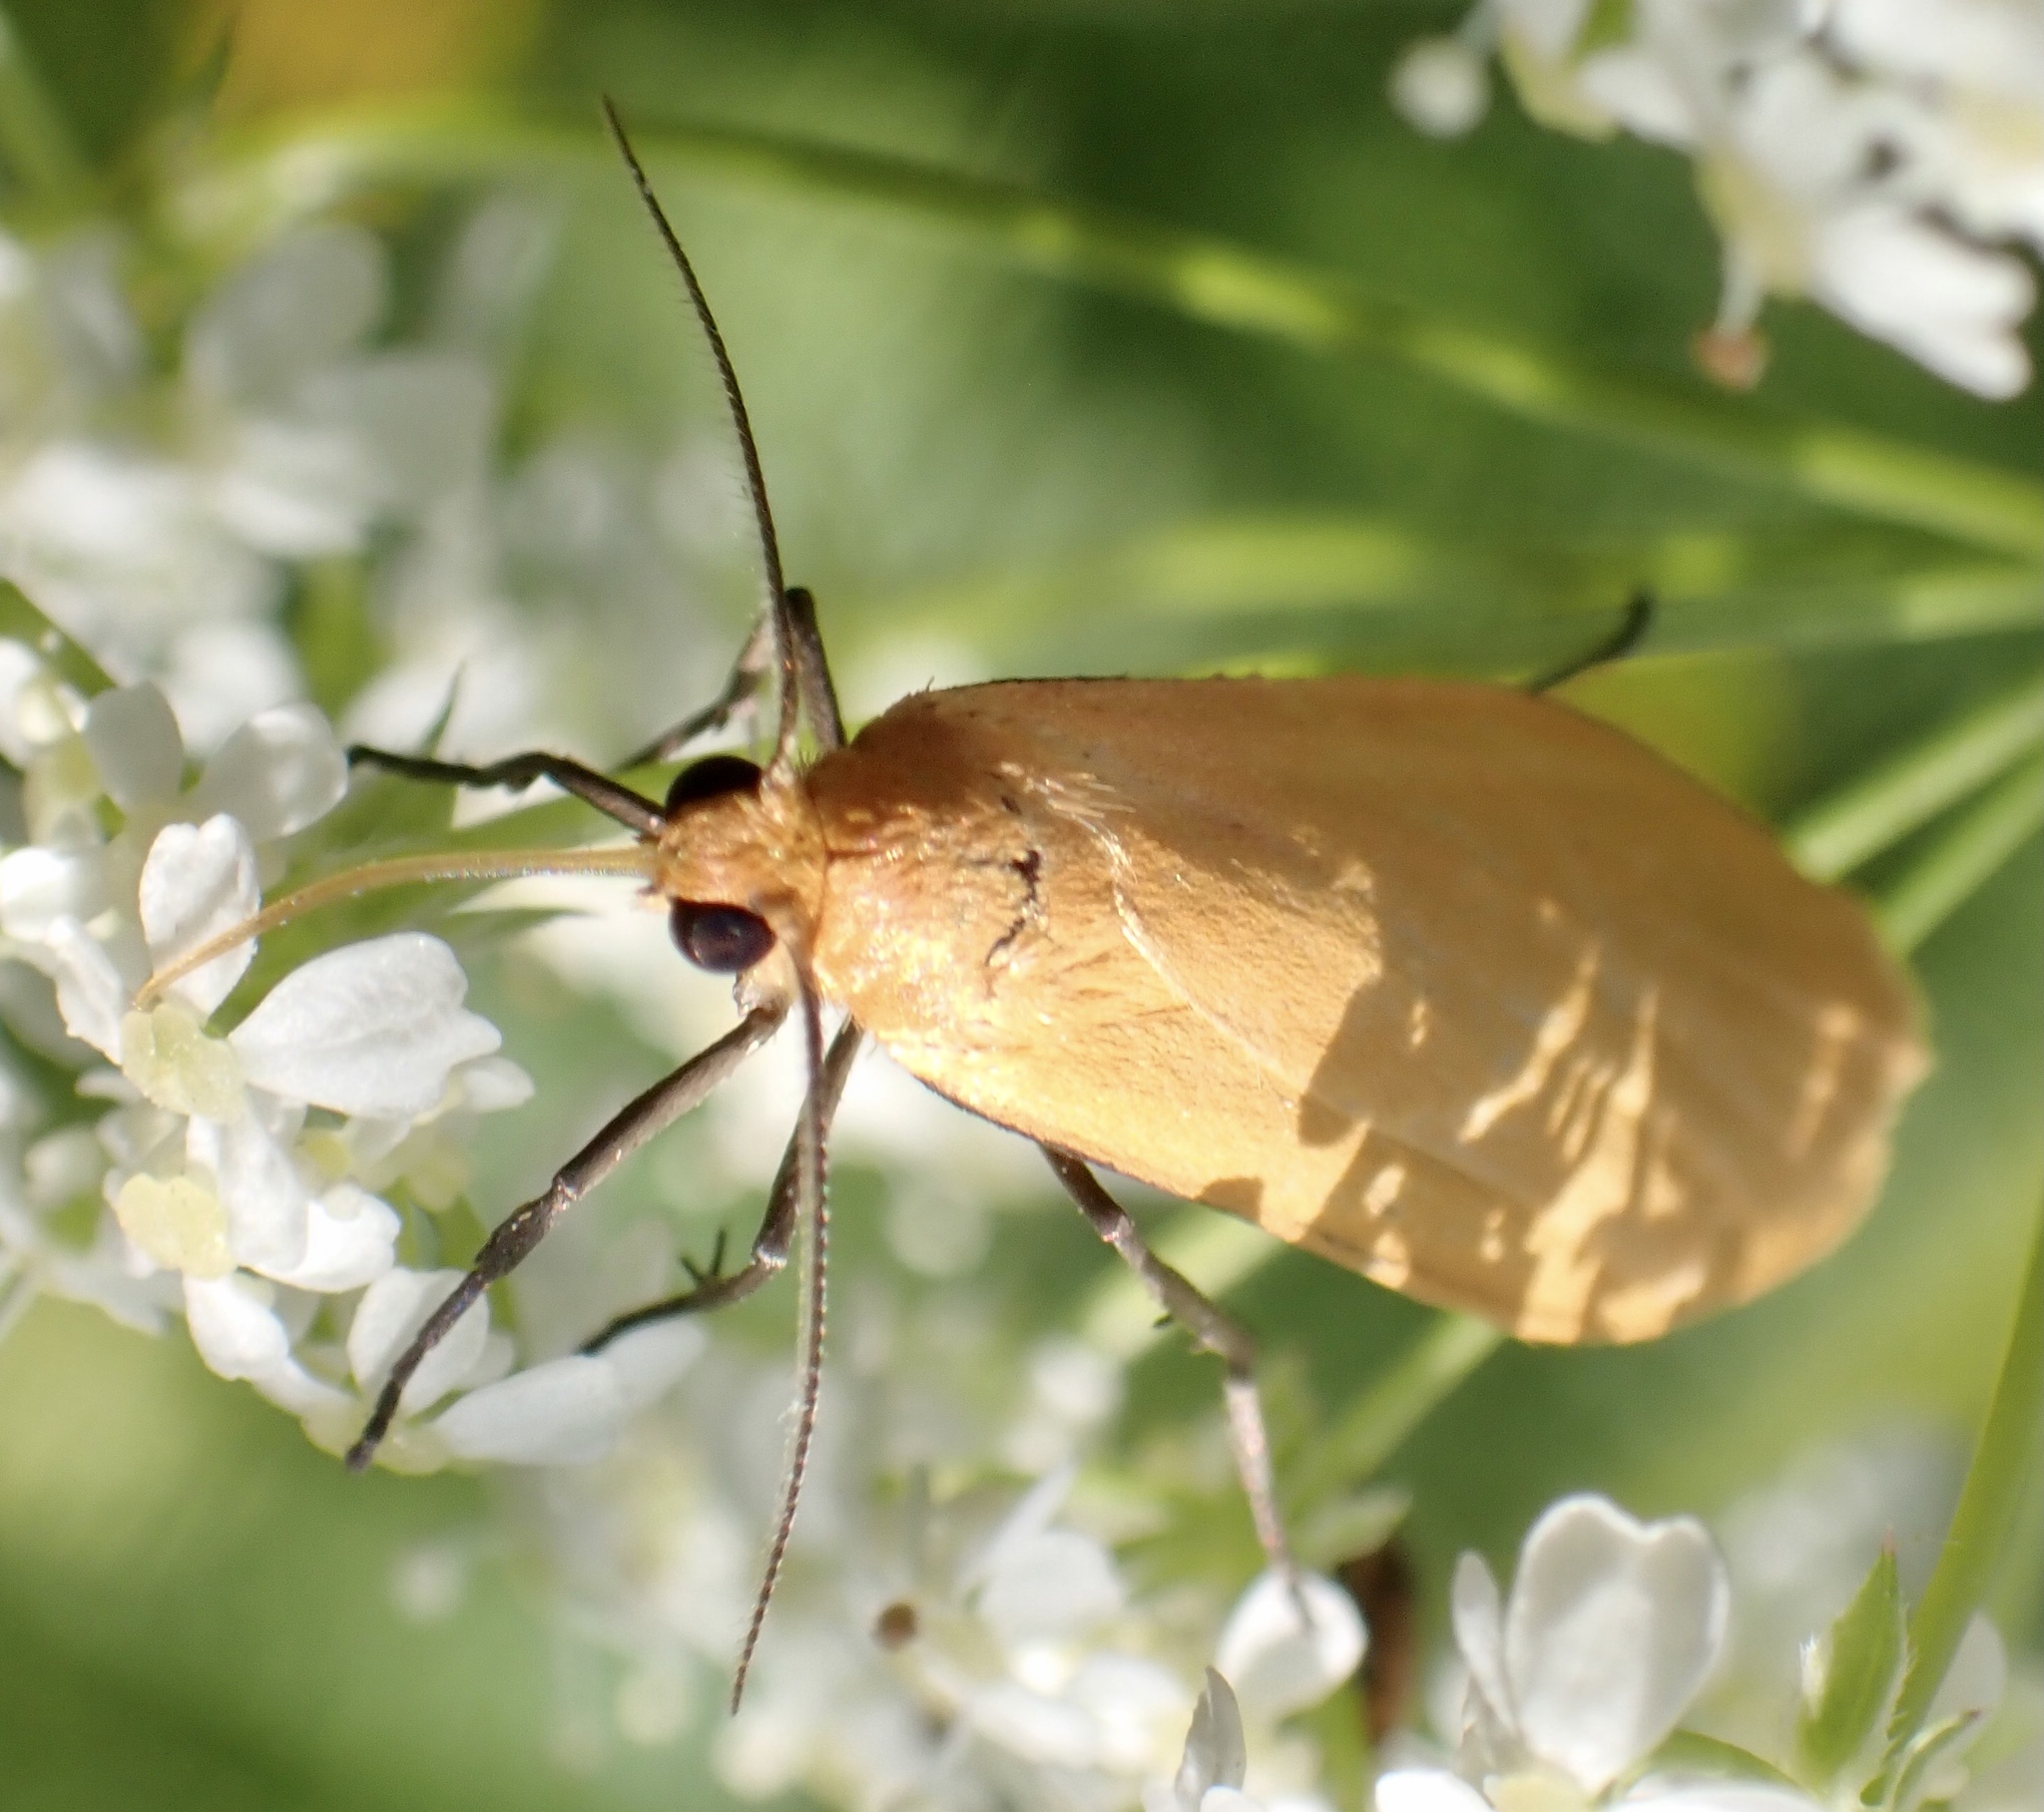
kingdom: Animalia
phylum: Arthropoda
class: Insecta
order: Lepidoptera
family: Erebidae
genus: Wittia
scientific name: Wittia sororcula
